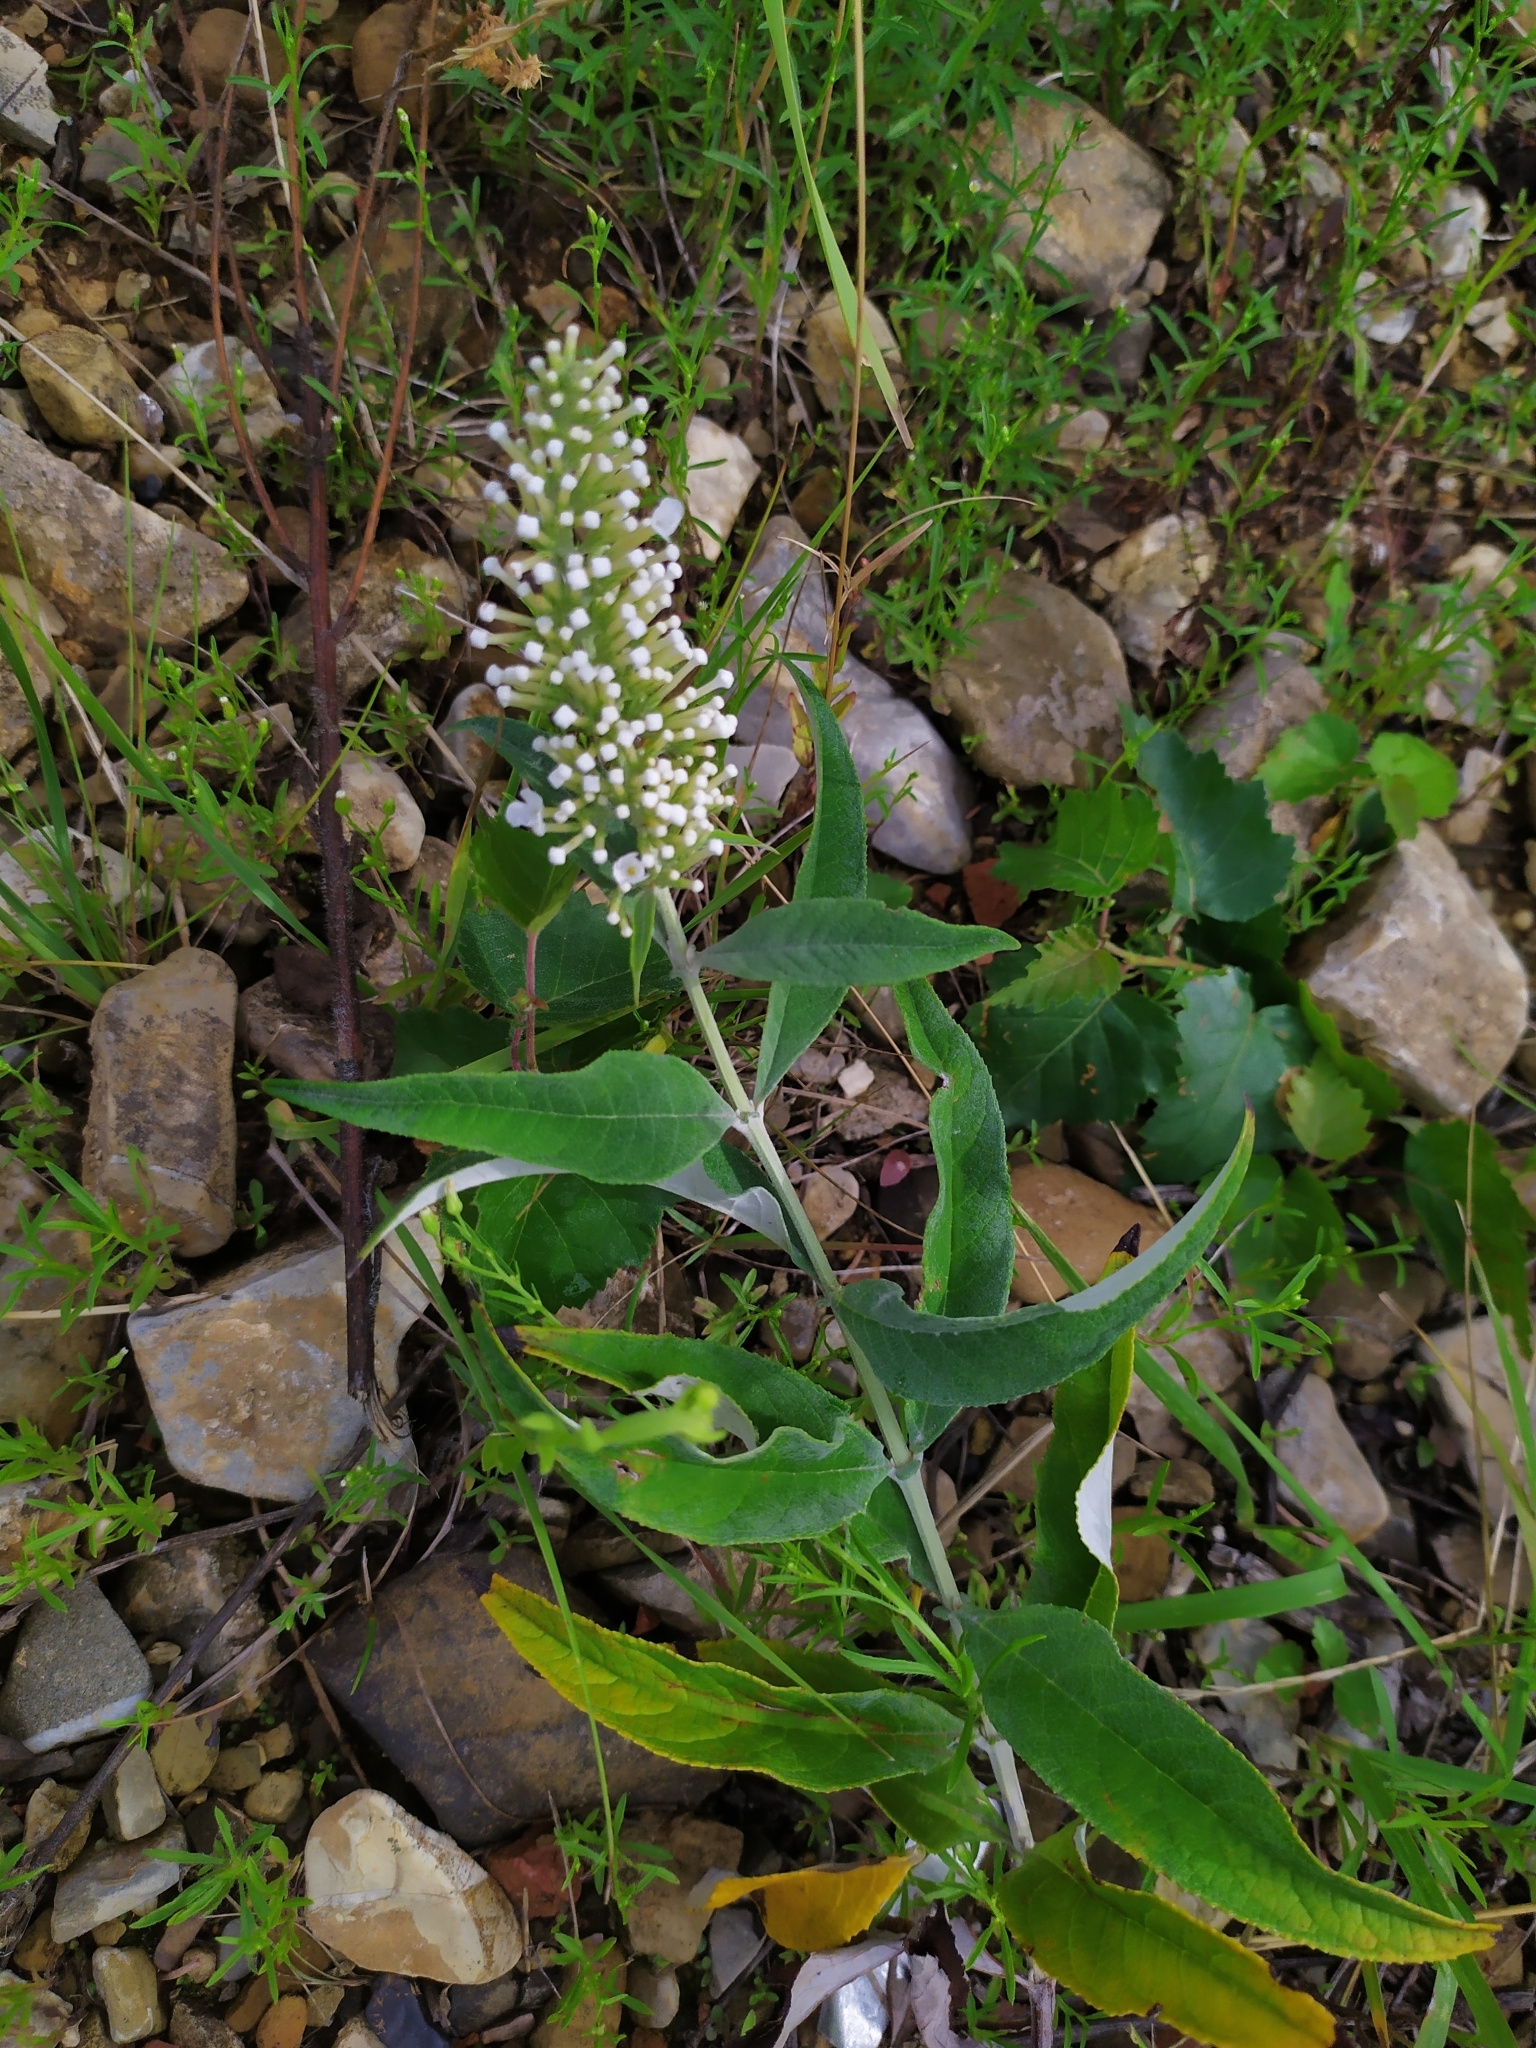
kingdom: Plantae
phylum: Tracheophyta
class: Magnoliopsida
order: Lamiales
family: Scrophulariaceae
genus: Buddleja
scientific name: Buddleja davidii
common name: Butterfly-bush
